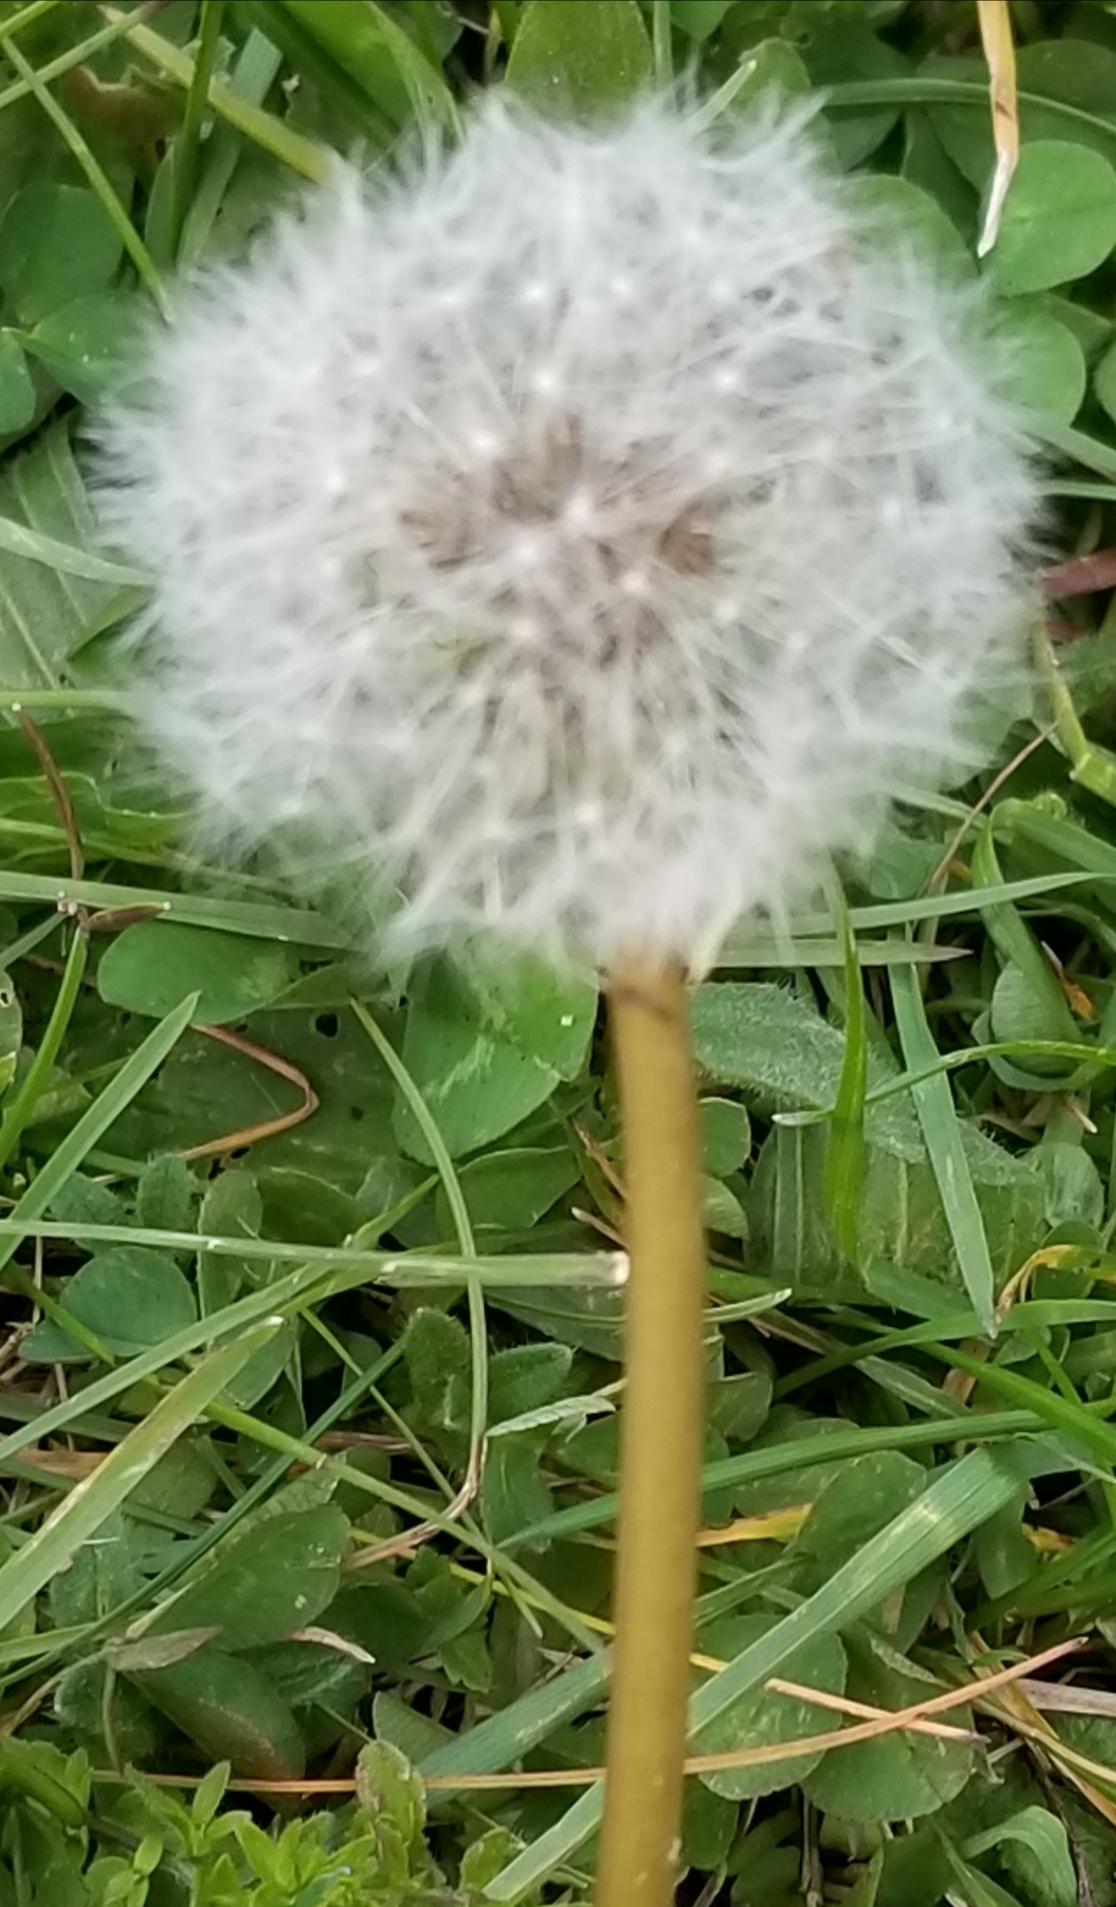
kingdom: Plantae
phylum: Tracheophyta
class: Magnoliopsida
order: Asterales
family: Asteraceae
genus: Taraxacum
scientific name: Taraxacum officinale
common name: Common dandelion
